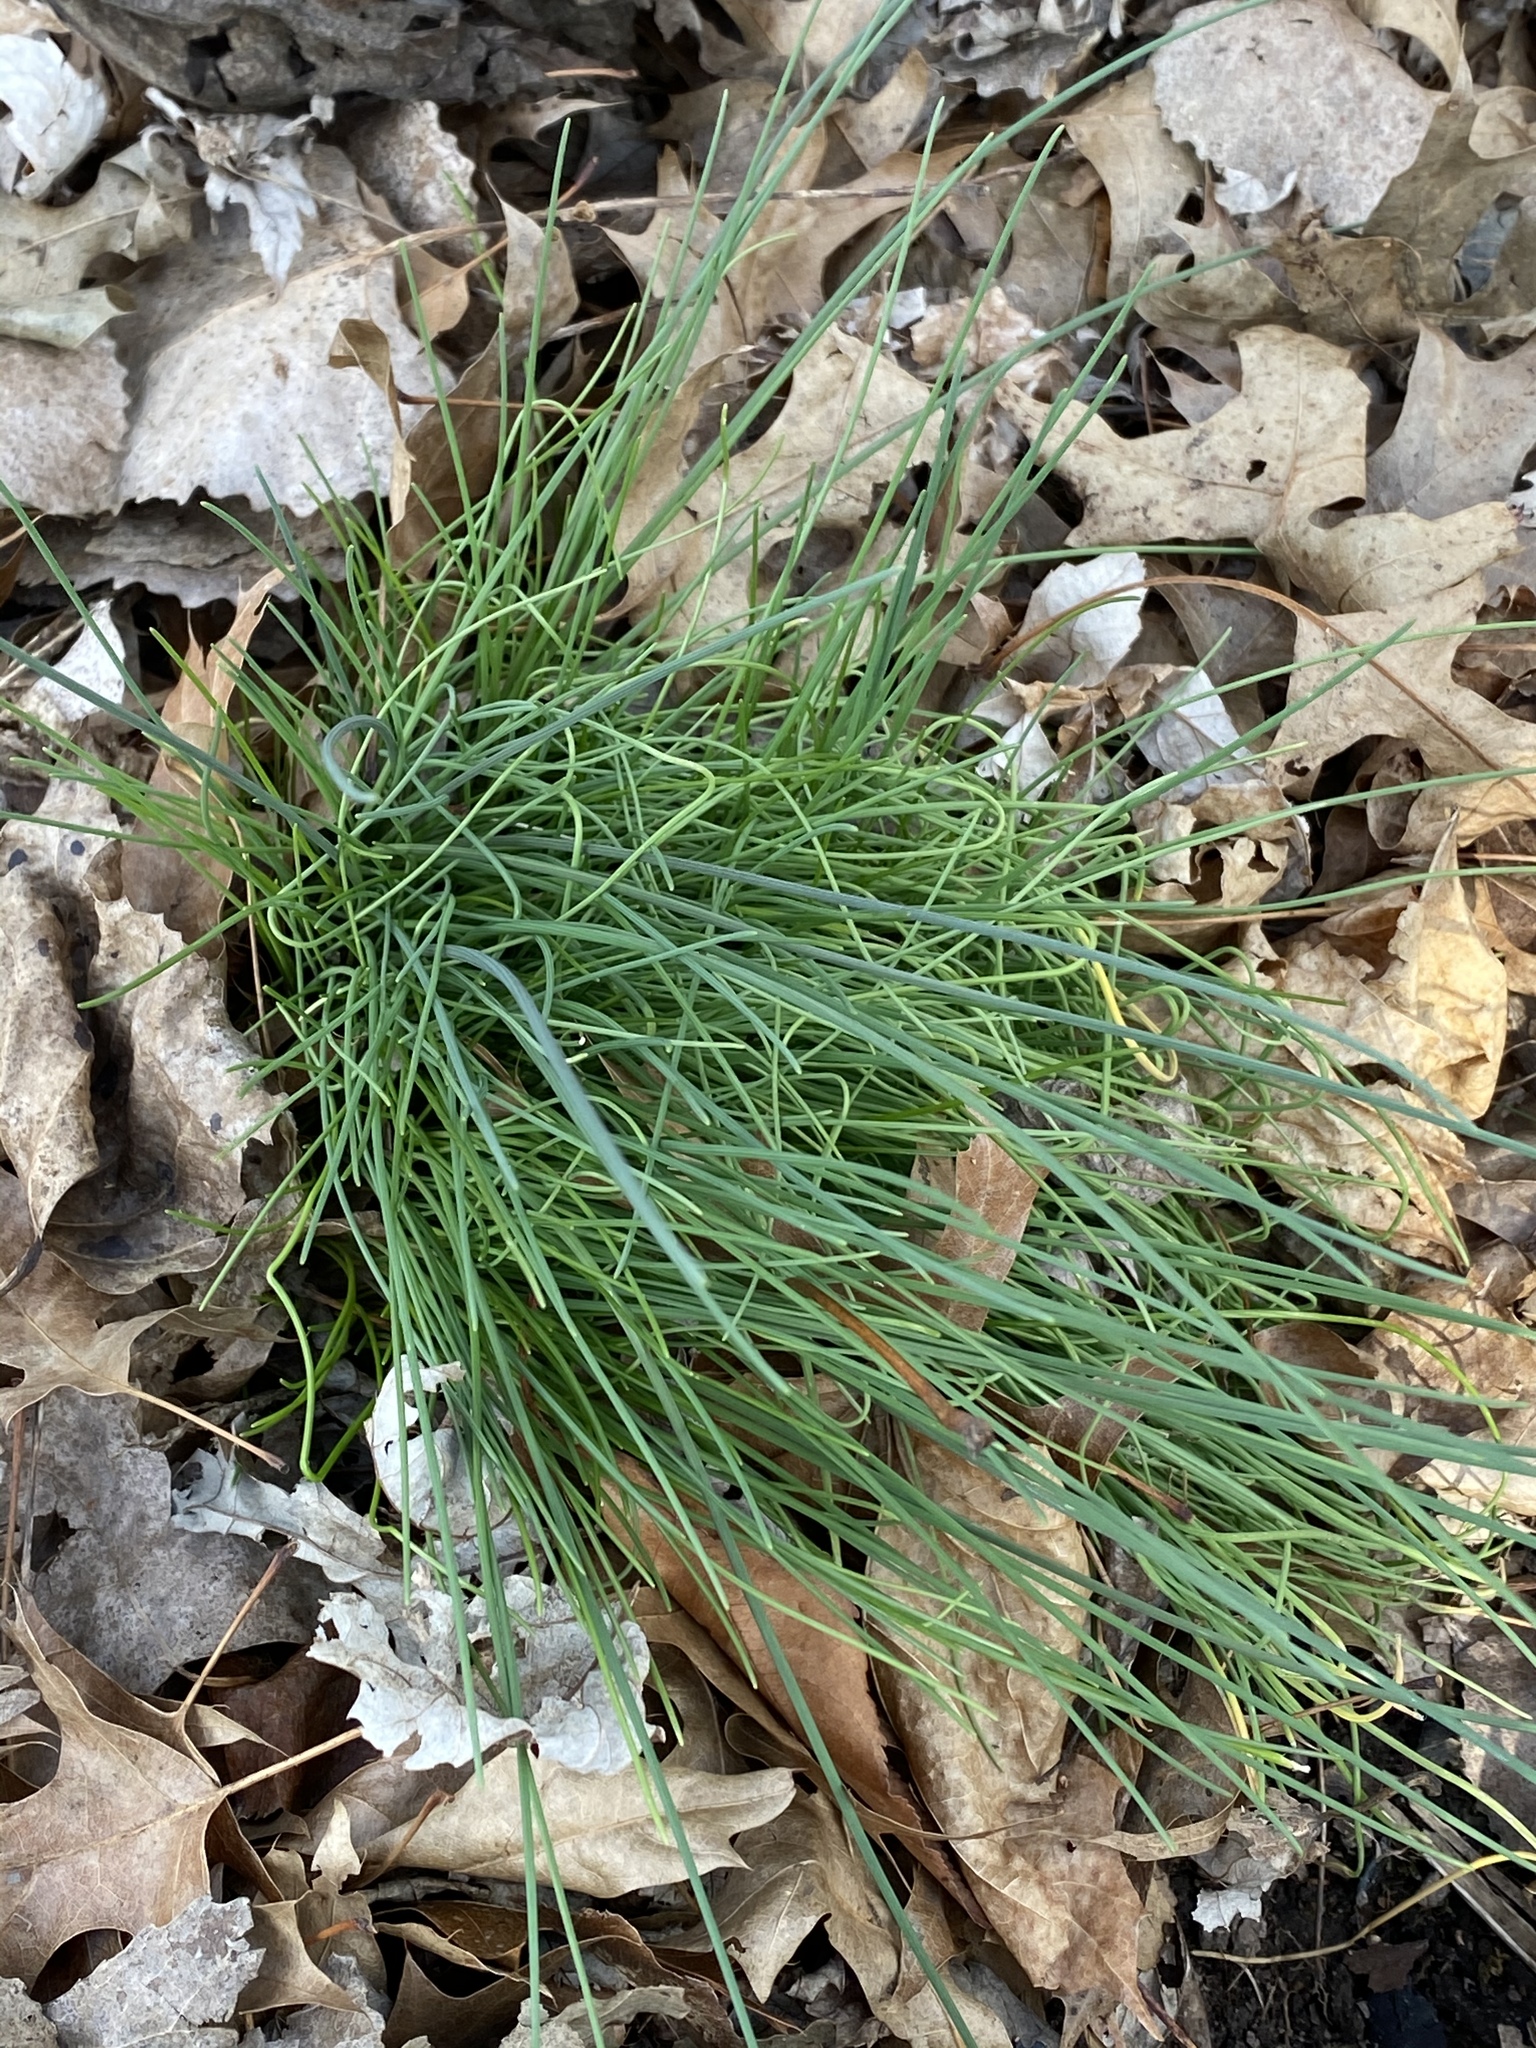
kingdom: Plantae
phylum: Tracheophyta
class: Liliopsida
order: Asparagales
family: Amaryllidaceae
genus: Allium
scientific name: Allium vineale
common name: Crow garlic
